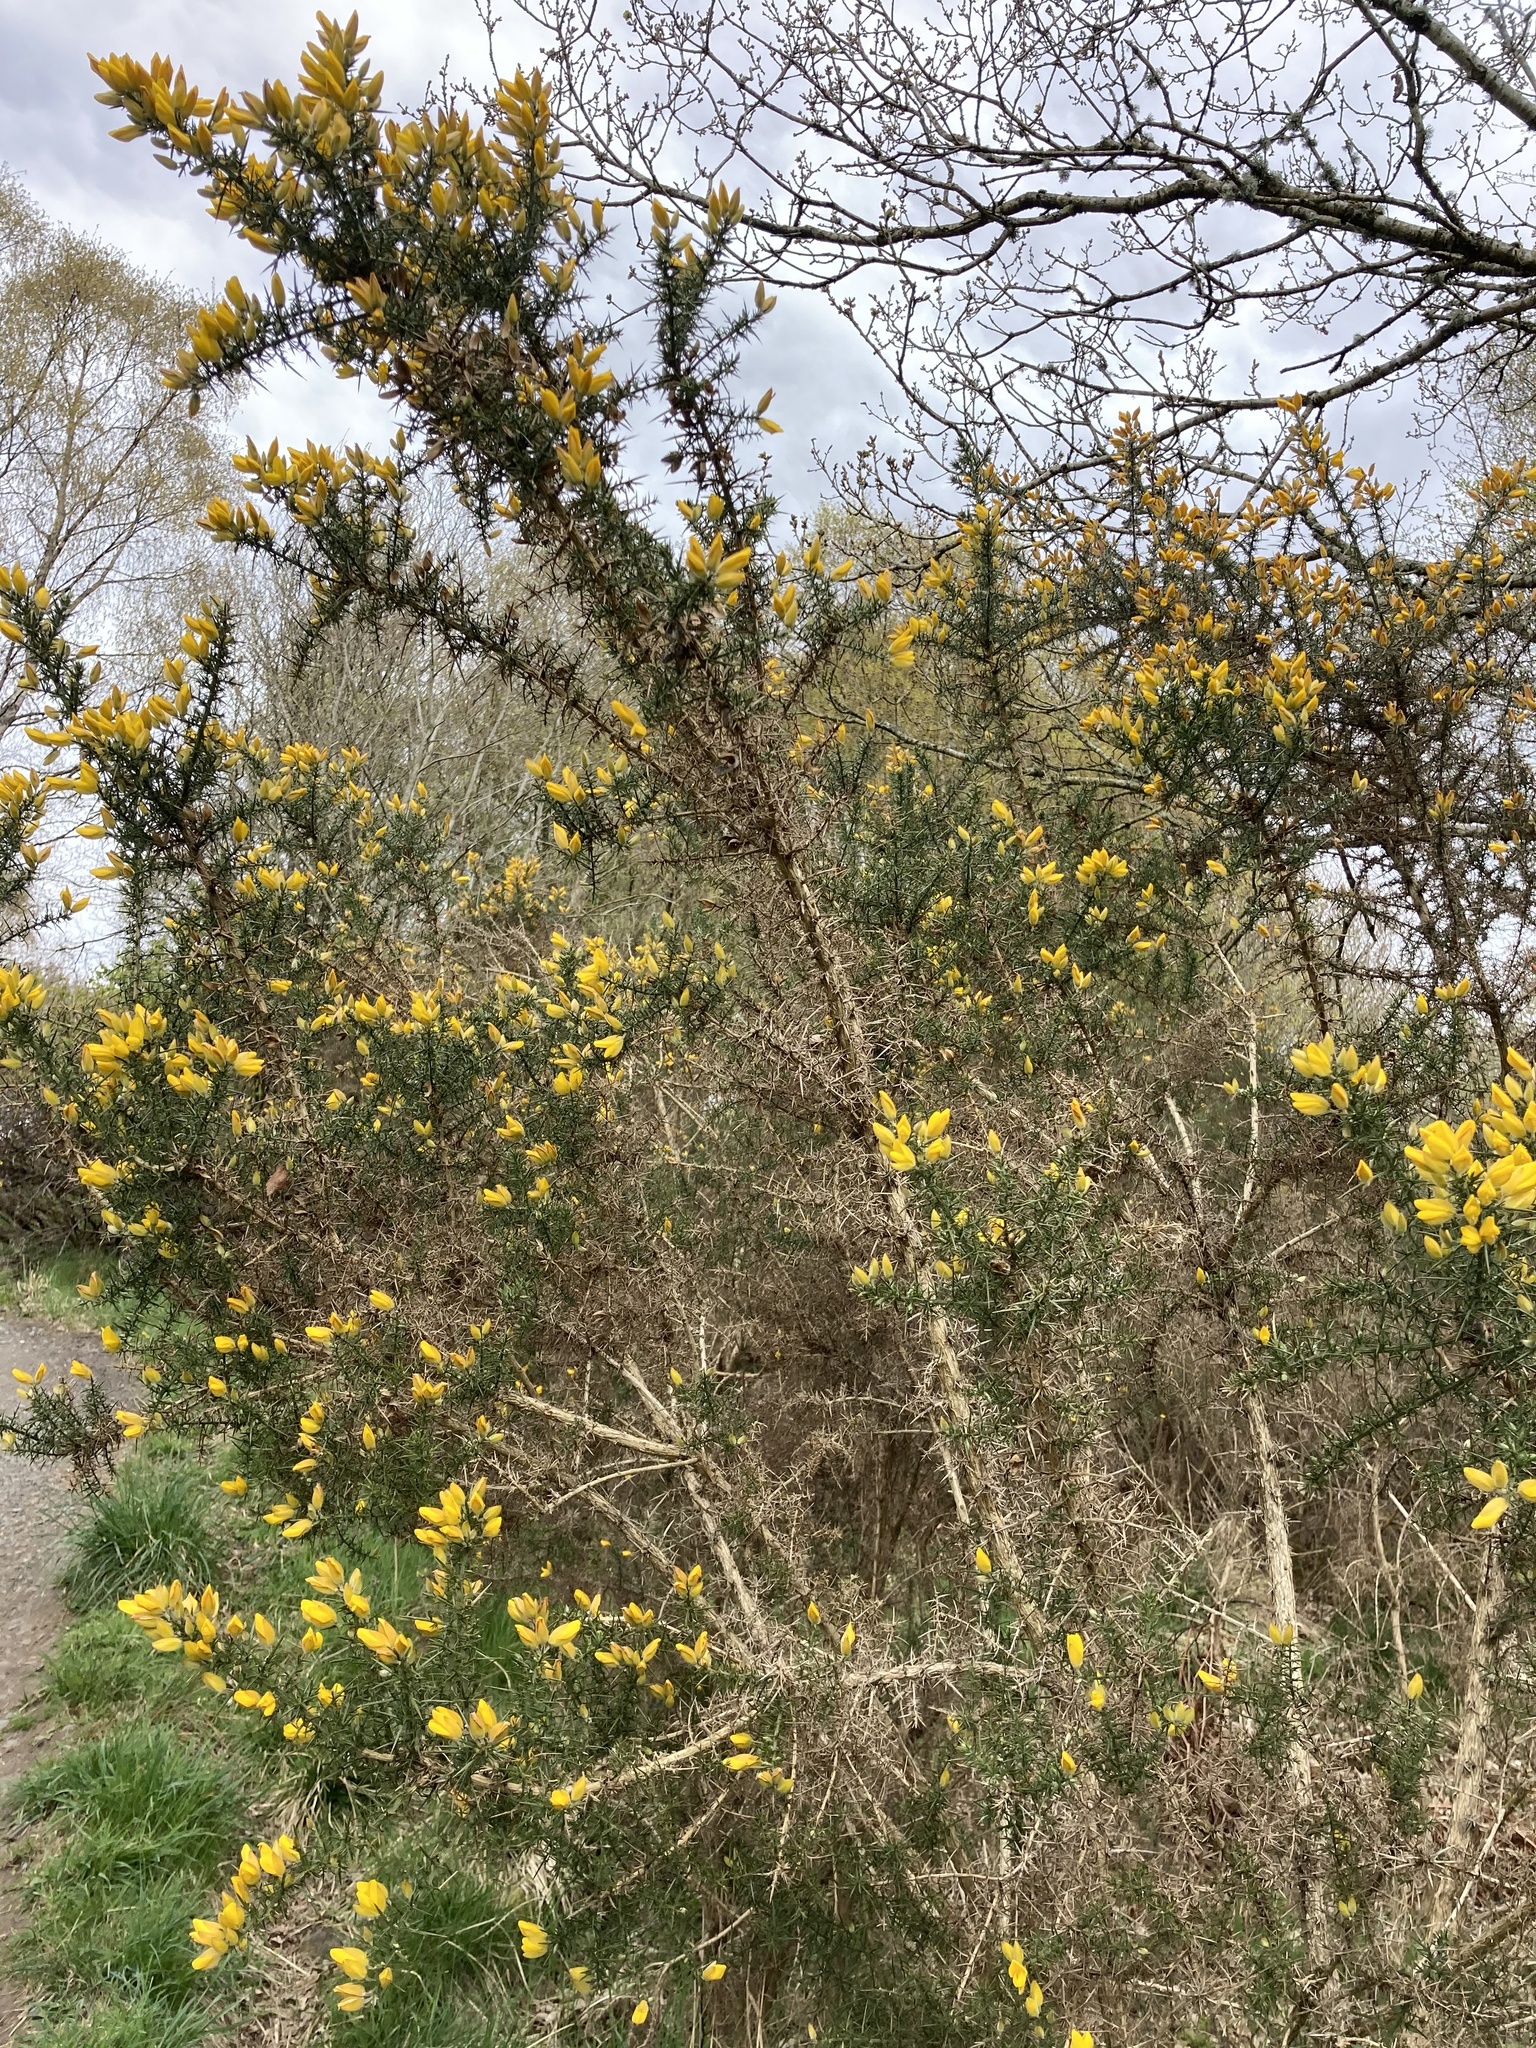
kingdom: Plantae
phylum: Tracheophyta
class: Magnoliopsida
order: Fabales
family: Fabaceae
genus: Ulex
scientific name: Ulex europaeus
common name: Common gorse
